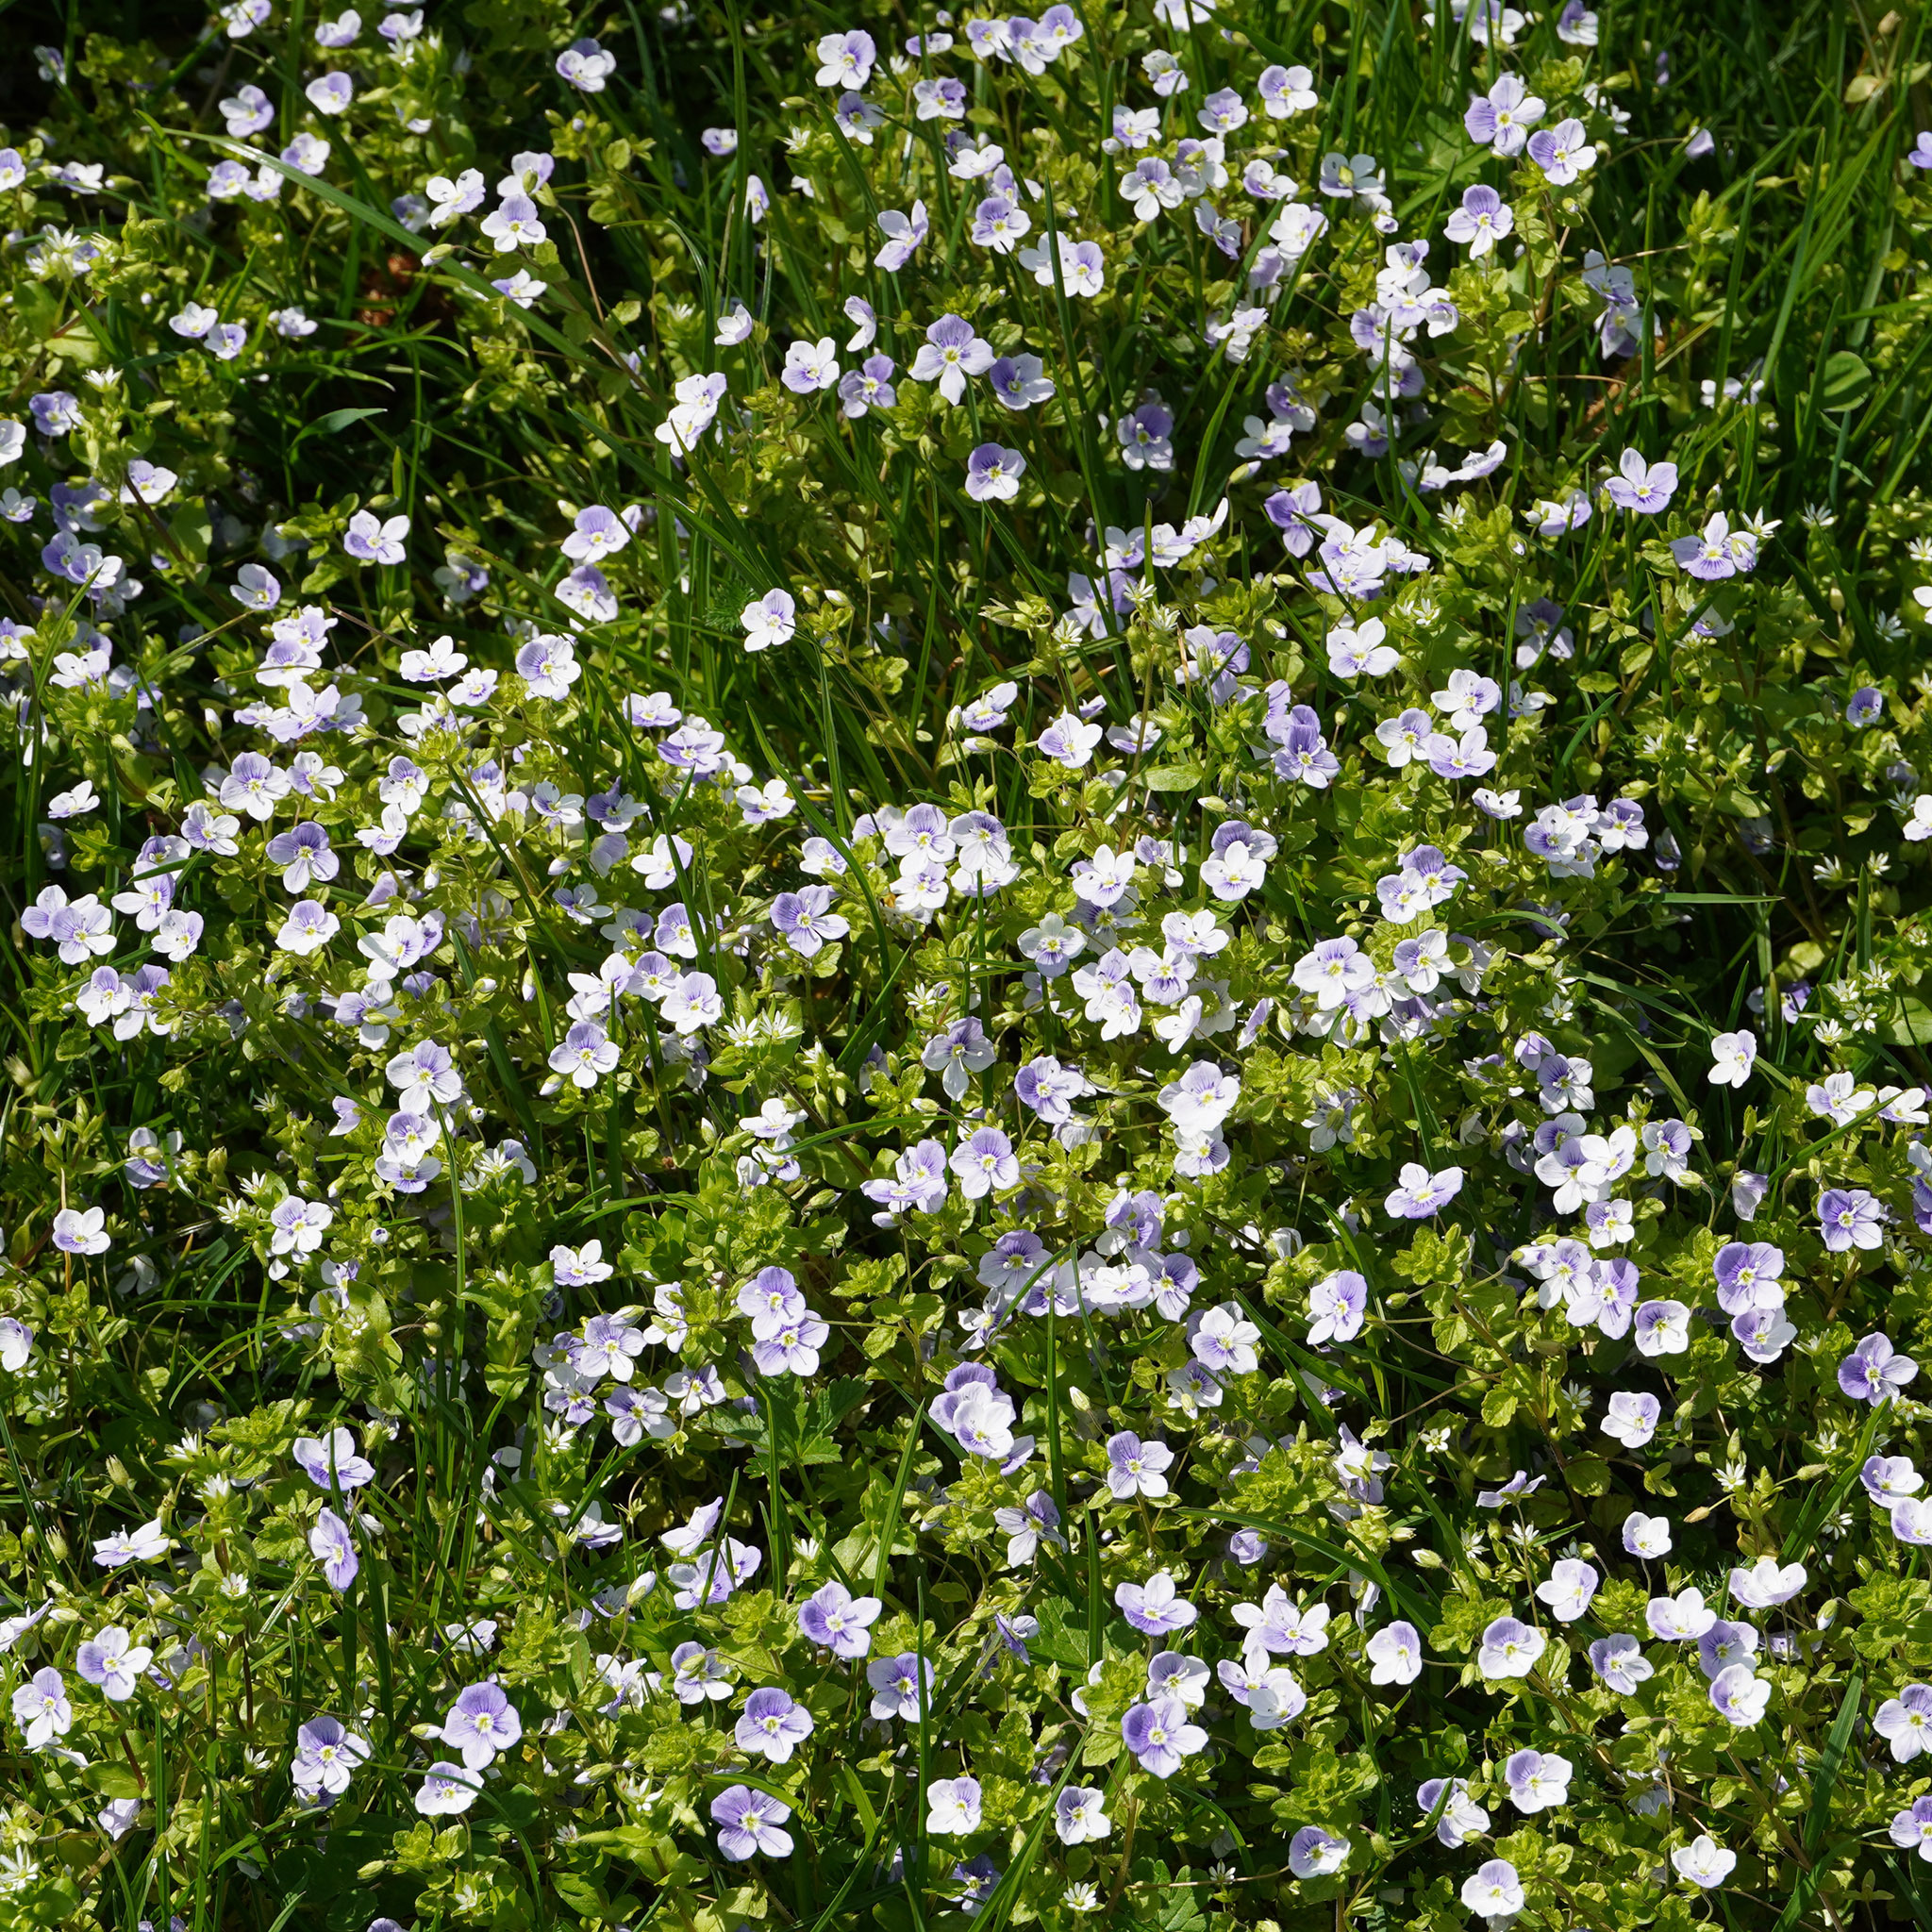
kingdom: Plantae
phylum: Tracheophyta
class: Magnoliopsida
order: Lamiales
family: Plantaginaceae
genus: Veronica
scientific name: Veronica filiformis
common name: Slender speedwell
